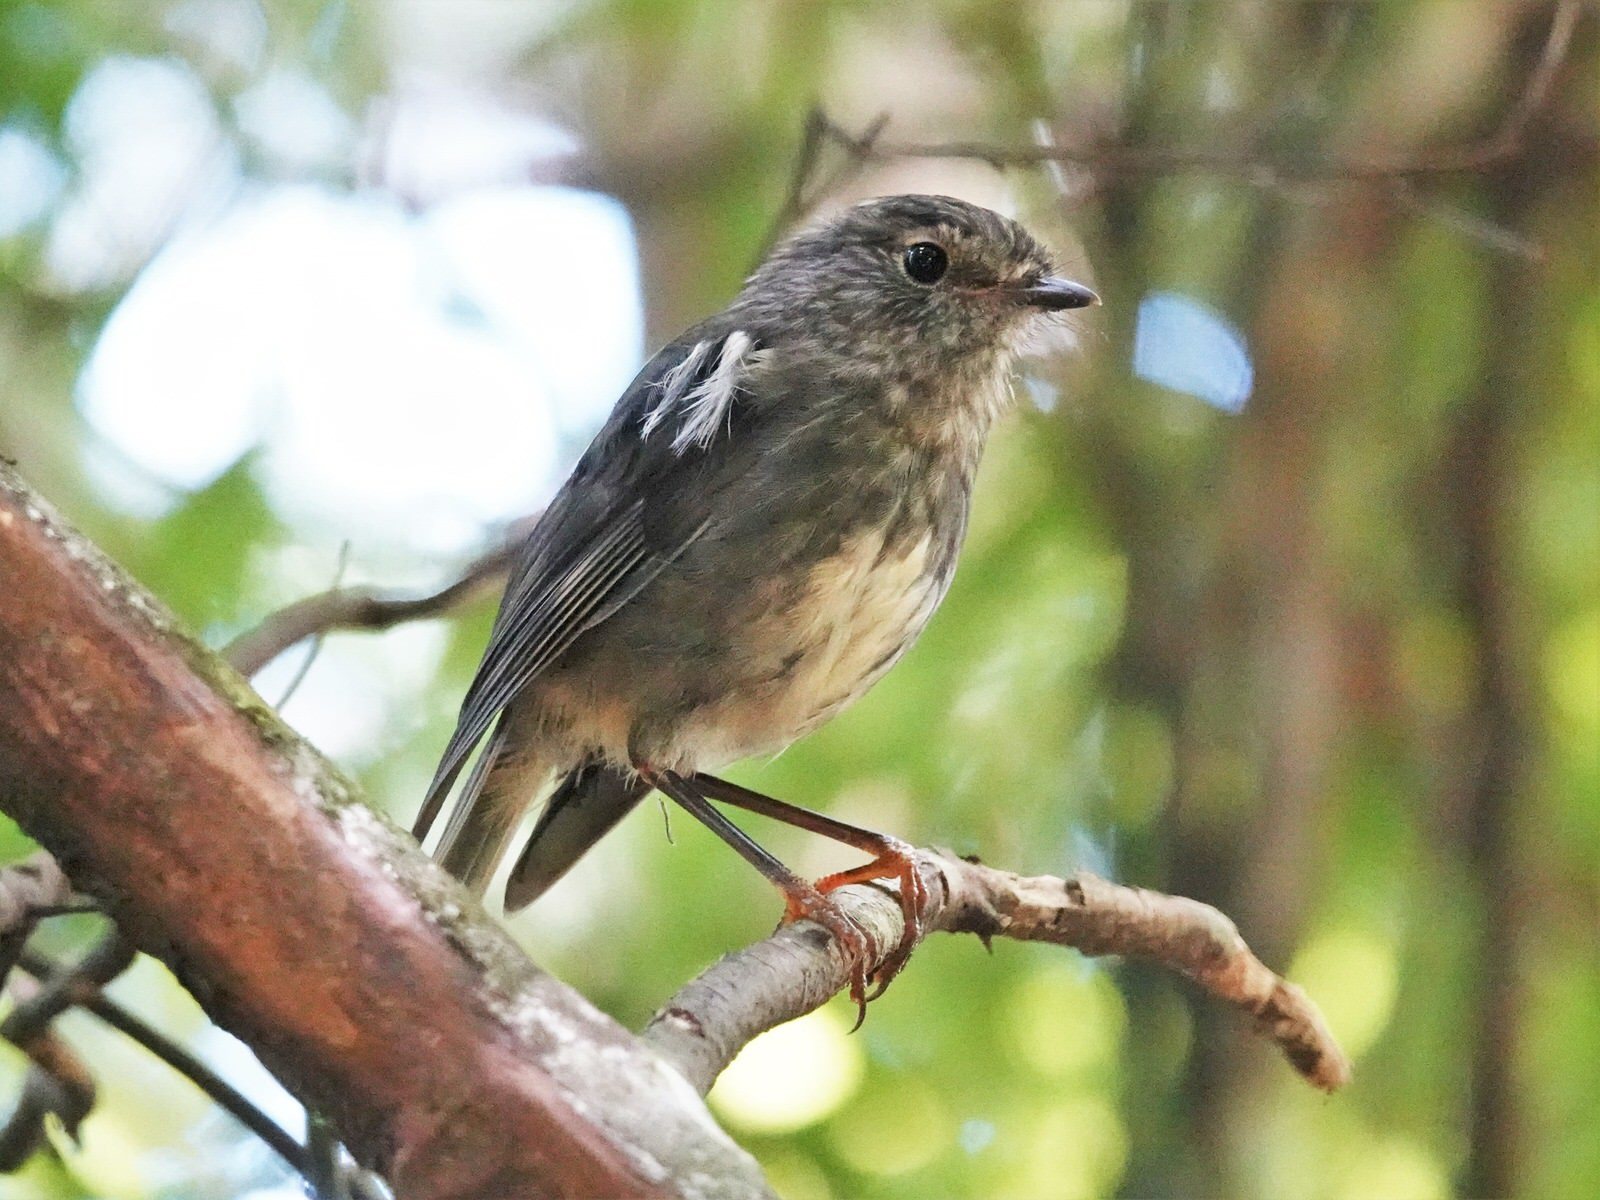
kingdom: Animalia
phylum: Chordata
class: Aves
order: Passeriformes
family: Petroicidae
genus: Petroica
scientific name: Petroica australis
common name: New zealand robin
